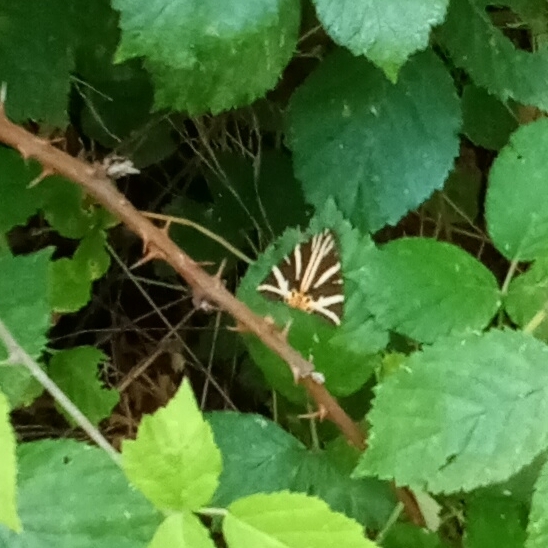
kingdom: Animalia
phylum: Arthropoda
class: Insecta
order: Lepidoptera
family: Erebidae
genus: Euplagia
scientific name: Euplagia quadripunctaria
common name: Jersey tiger
